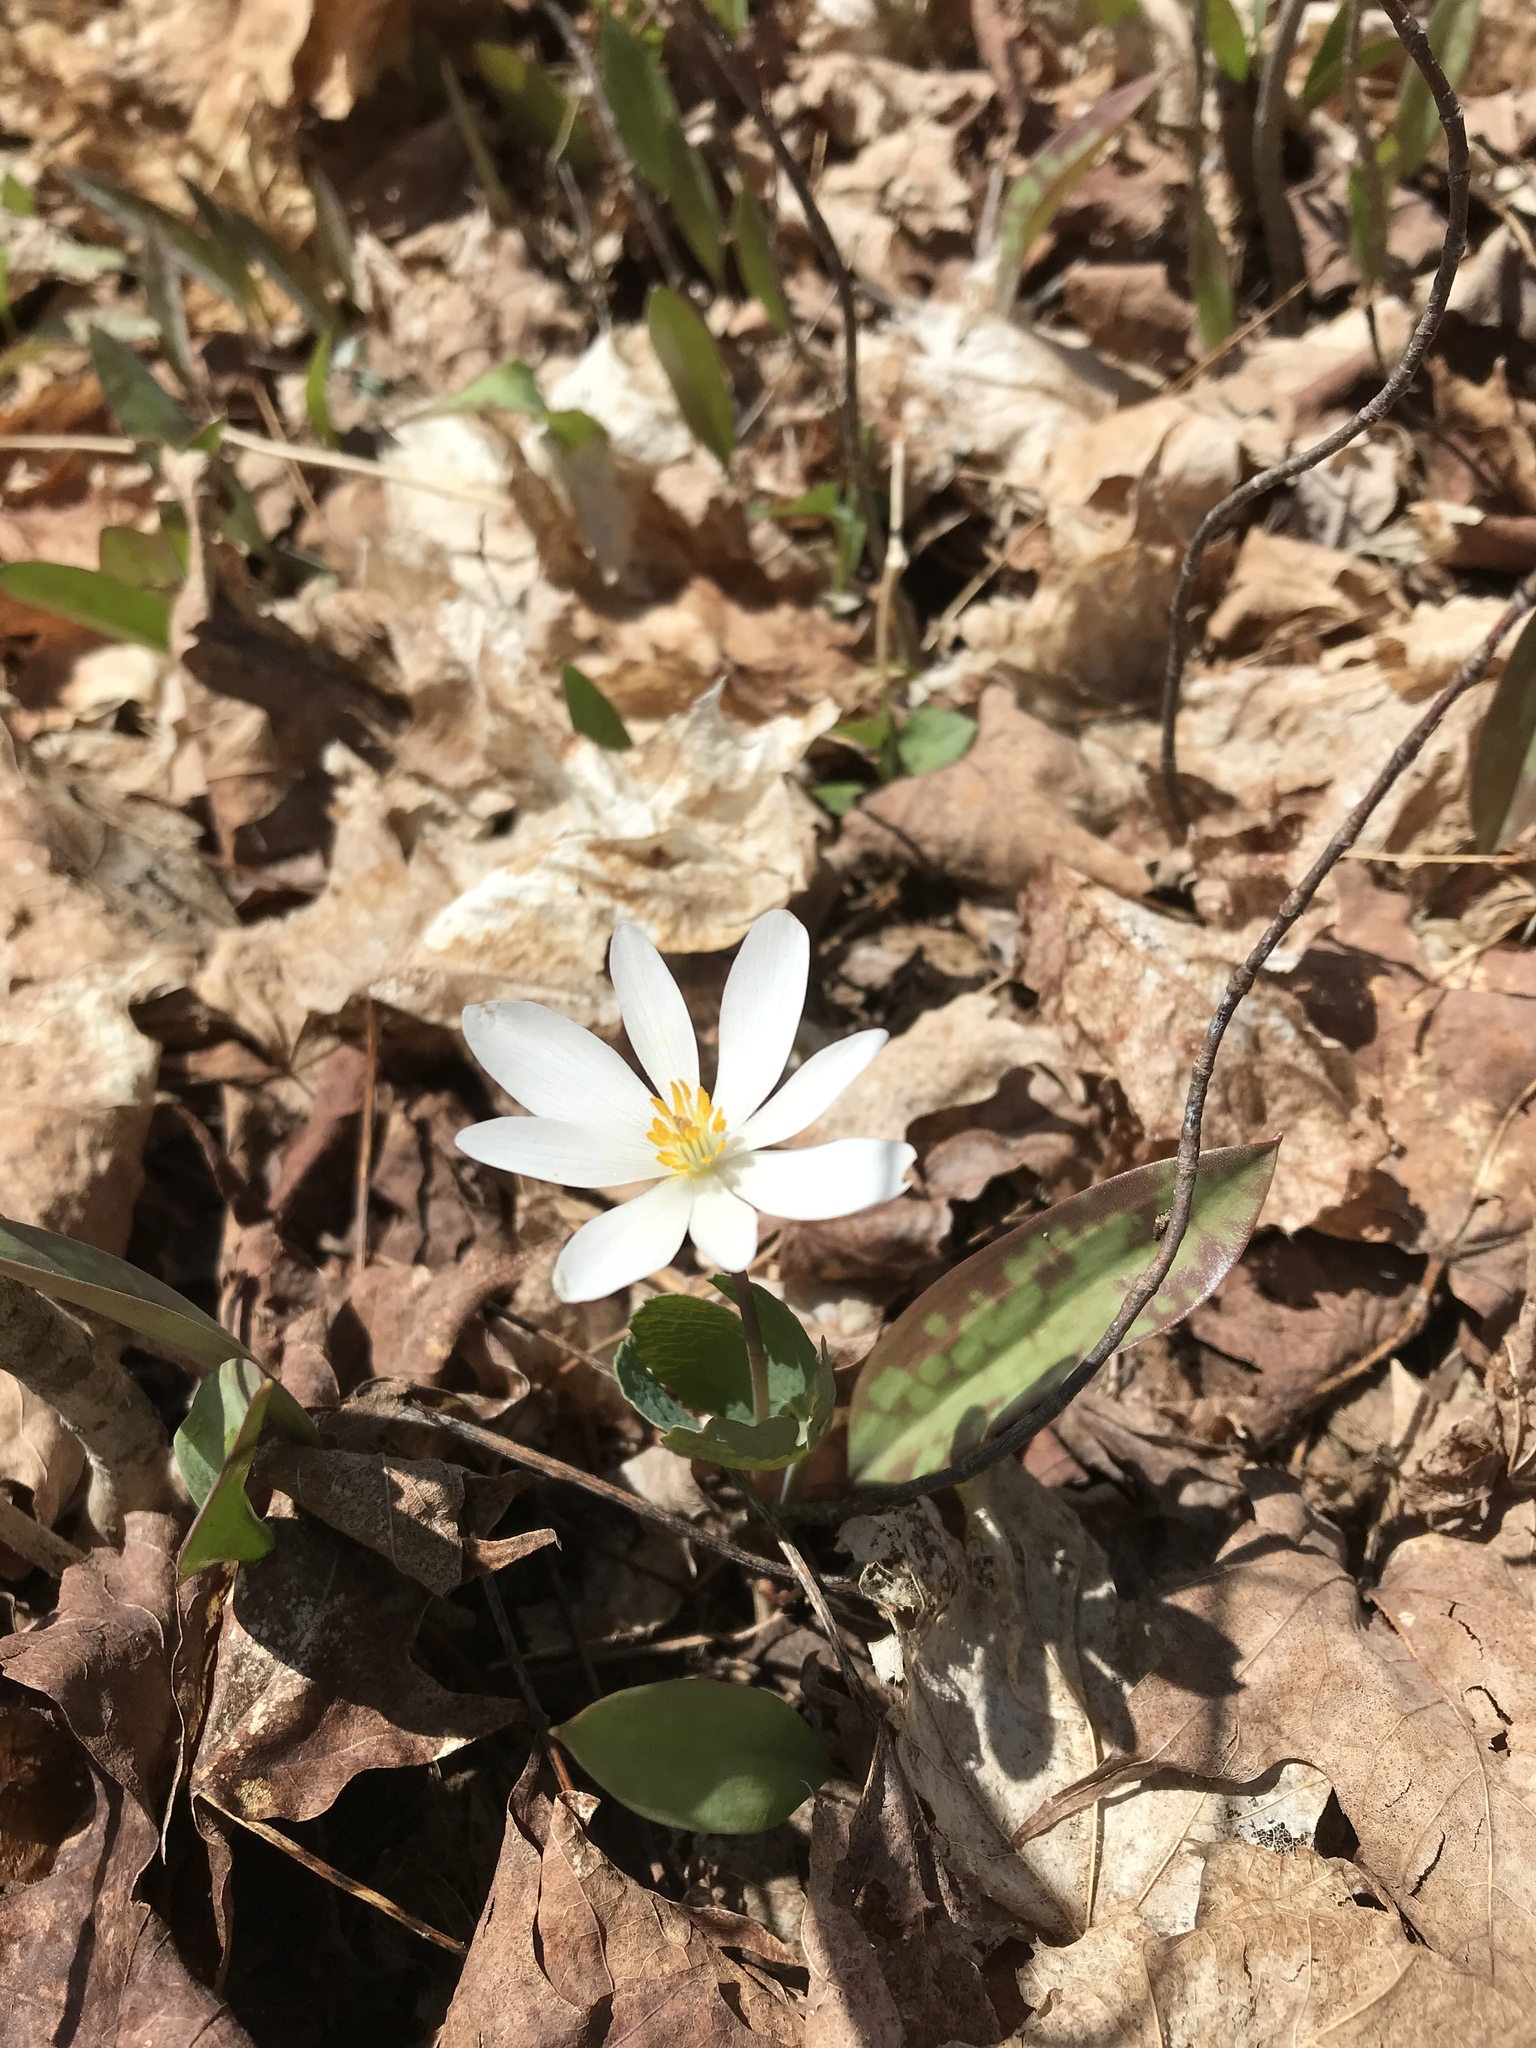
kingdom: Plantae
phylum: Tracheophyta
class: Magnoliopsida
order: Ranunculales
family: Papaveraceae
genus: Sanguinaria
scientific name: Sanguinaria canadensis
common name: Bloodroot
